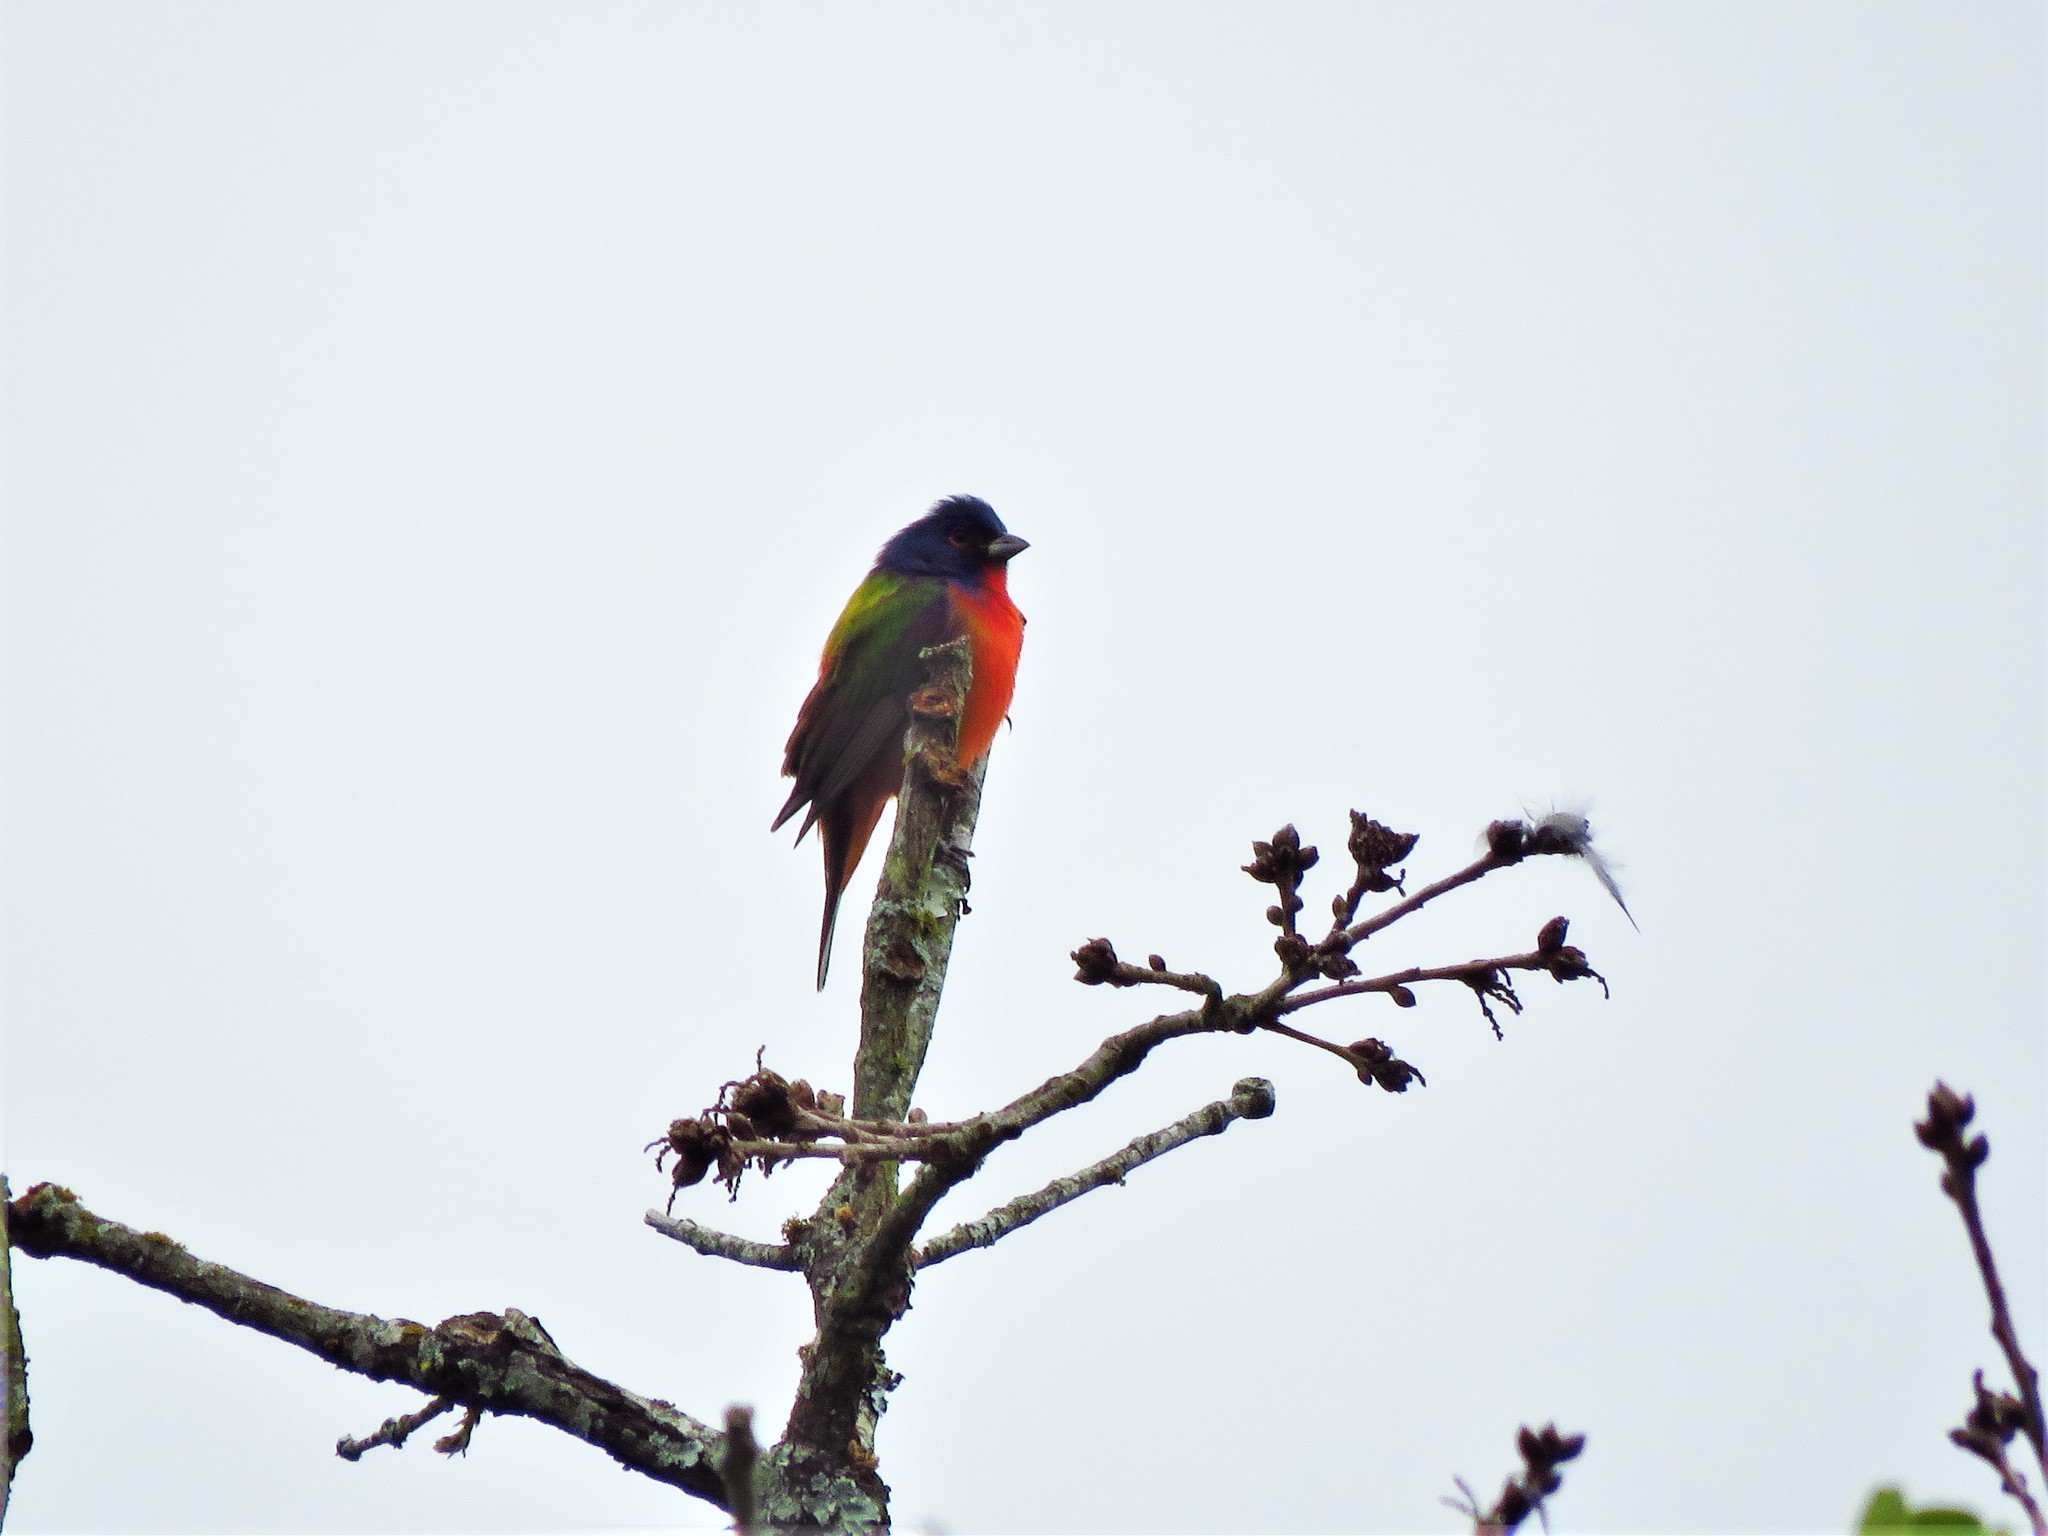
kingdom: Animalia
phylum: Chordata
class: Aves
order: Passeriformes
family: Cardinalidae
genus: Passerina
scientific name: Passerina ciris
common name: Painted bunting
